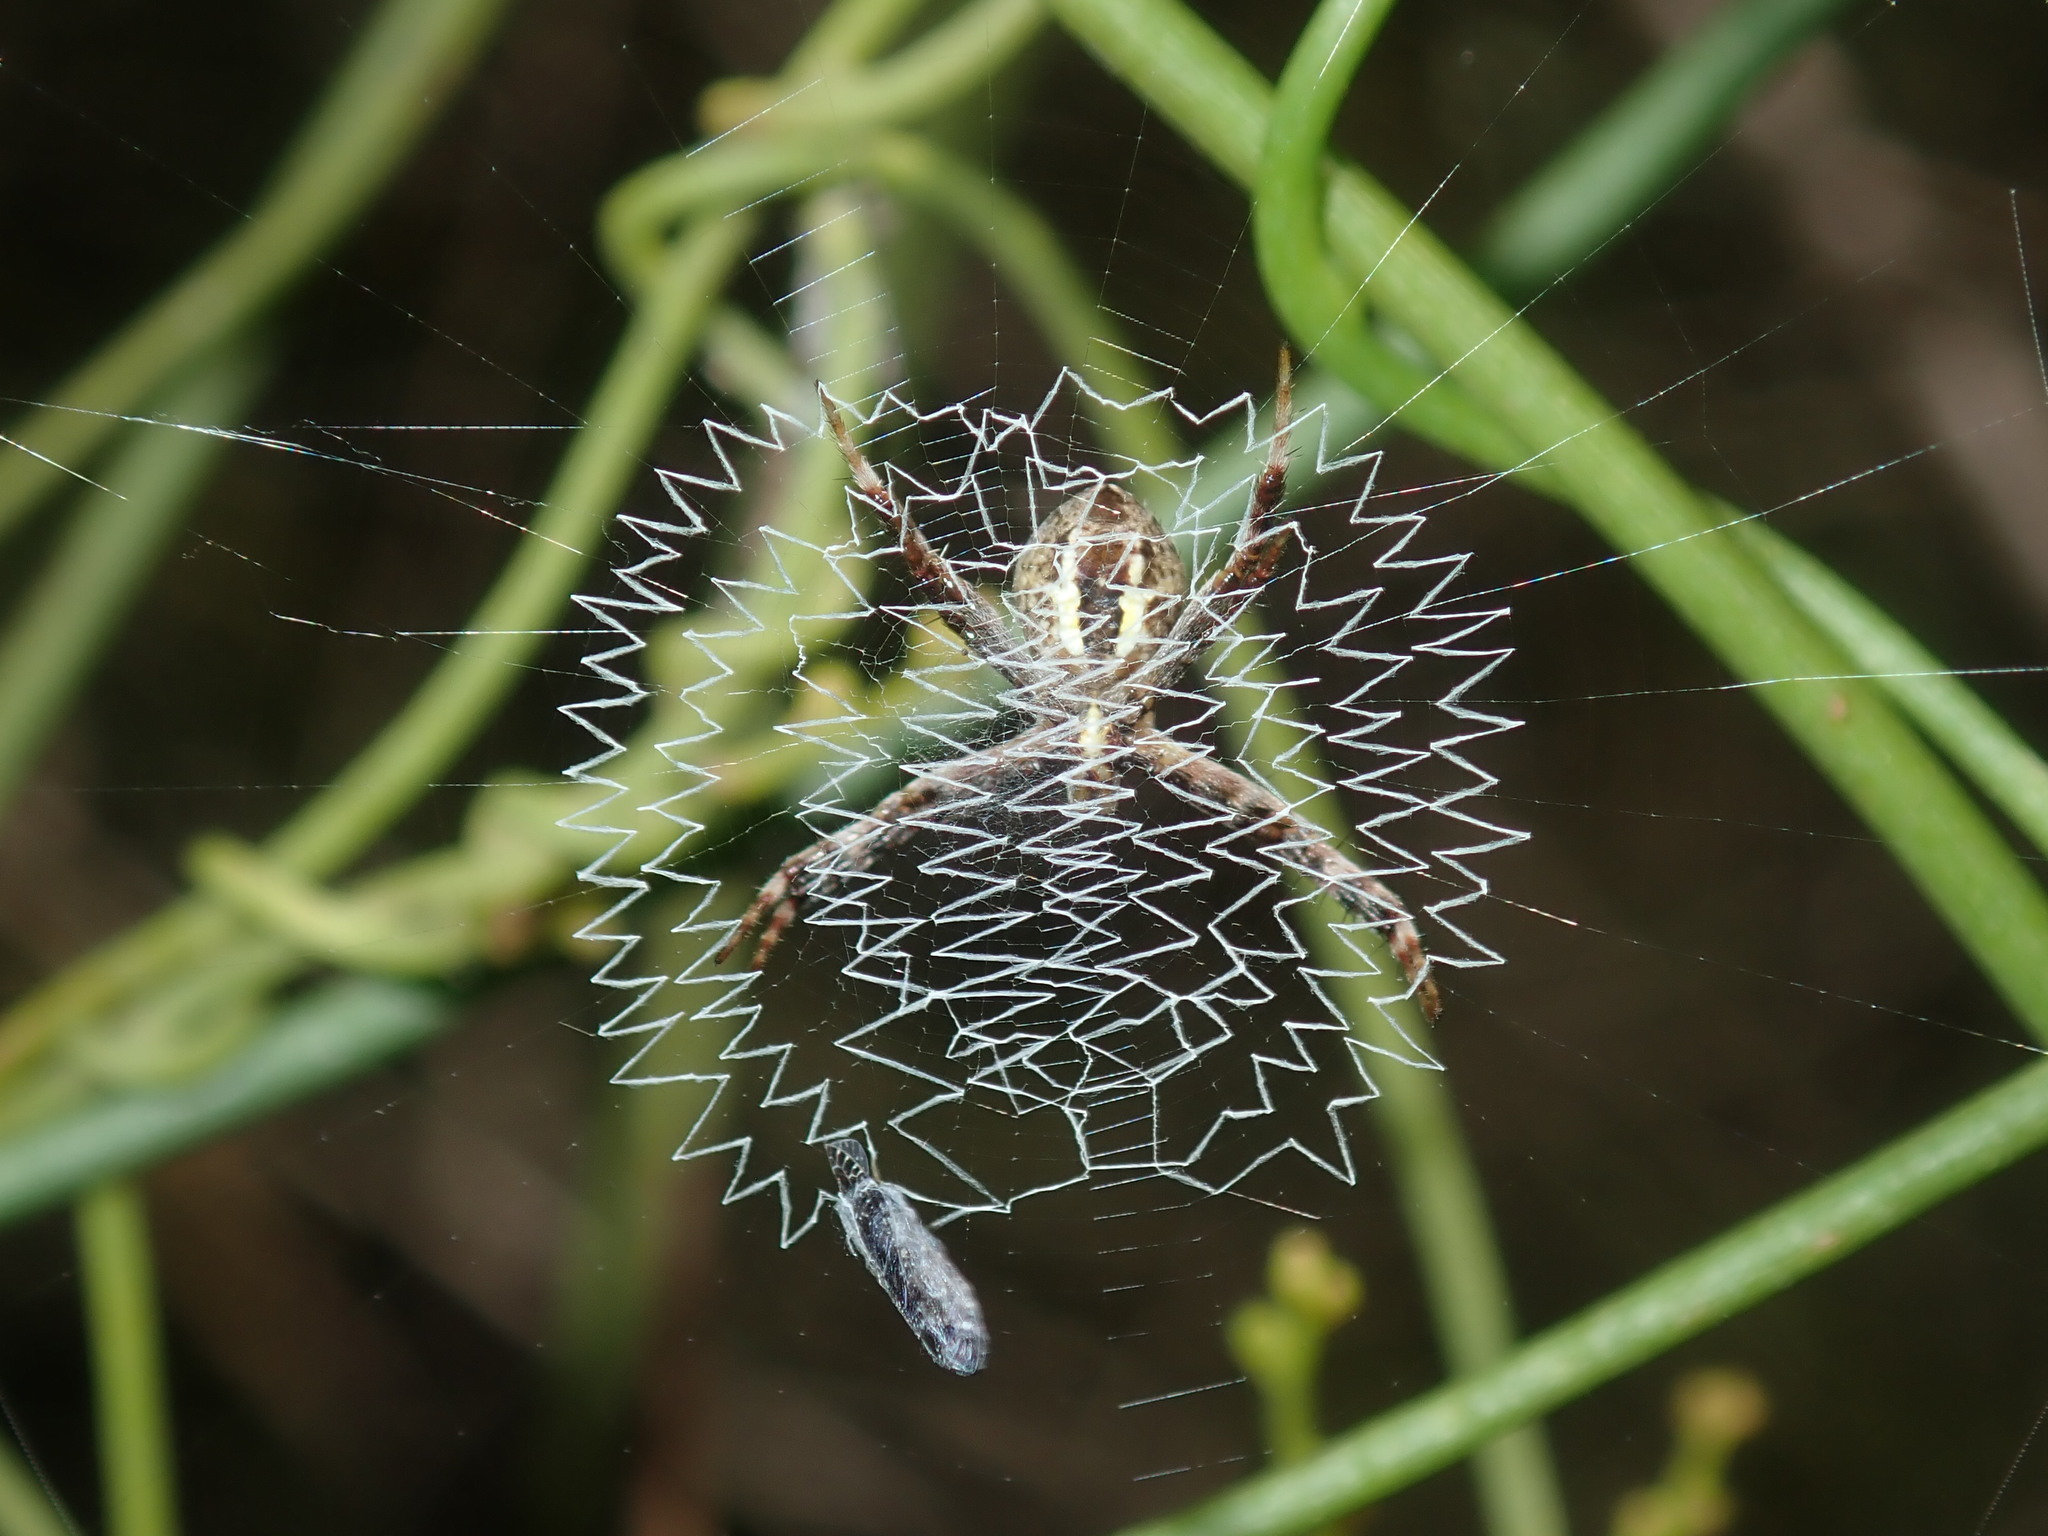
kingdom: Animalia
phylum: Arthropoda
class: Arachnida
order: Araneae
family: Araneidae
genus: Argiope
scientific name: Argiope keyserlingi
